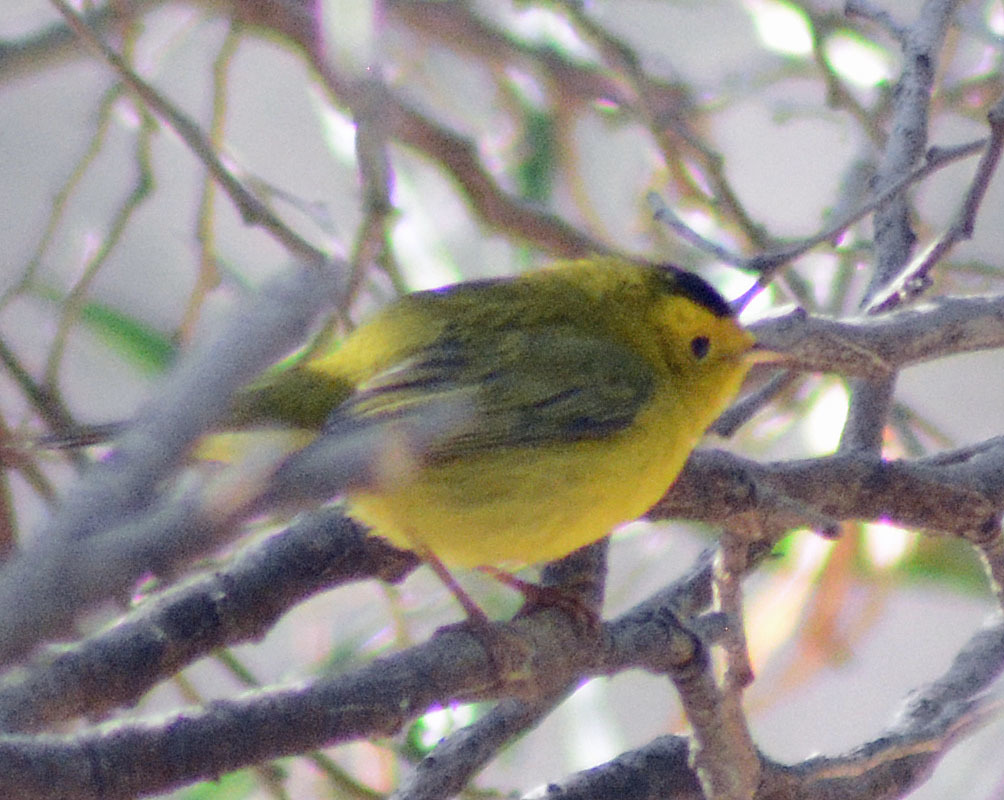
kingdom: Animalia
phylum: Chordata
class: Aves
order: Passeriformes
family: Parulidae
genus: Cardellina
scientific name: Cardellina pusilla
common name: Wilson's warbler
